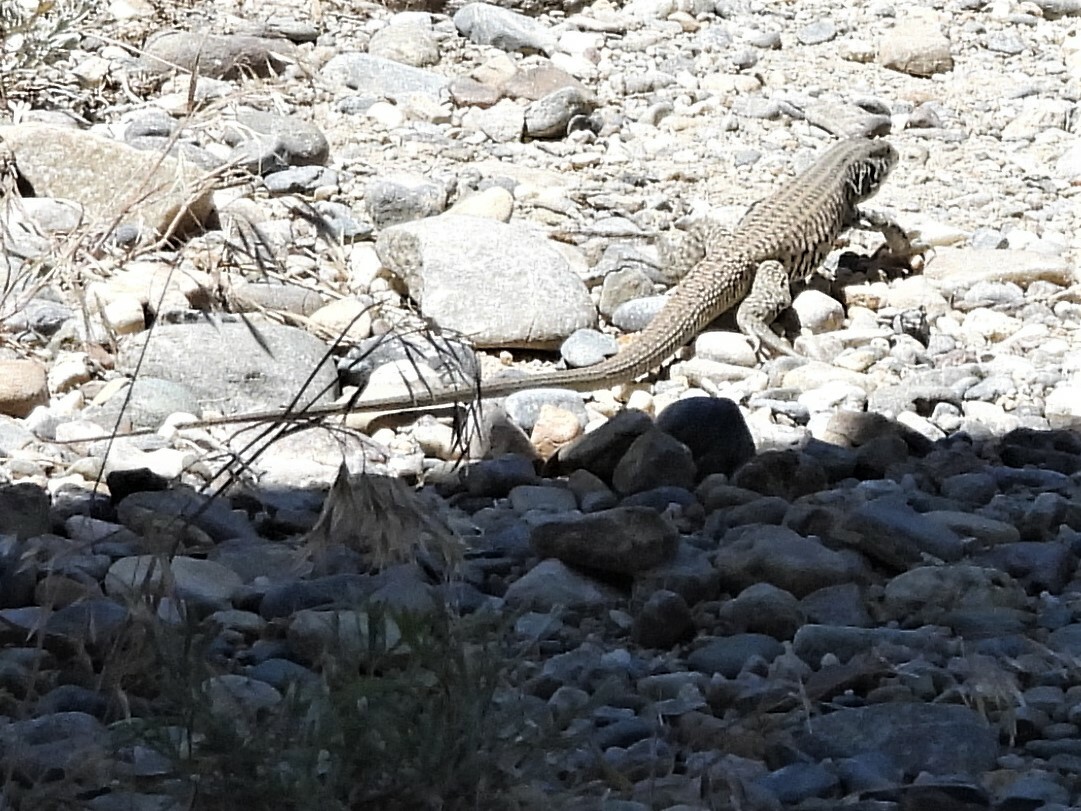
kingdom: Animalia
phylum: Chordata
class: Squamata
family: Teiidae
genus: Aspidoscelis
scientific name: Aspidoscelis tigris
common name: Tiger whiptail
